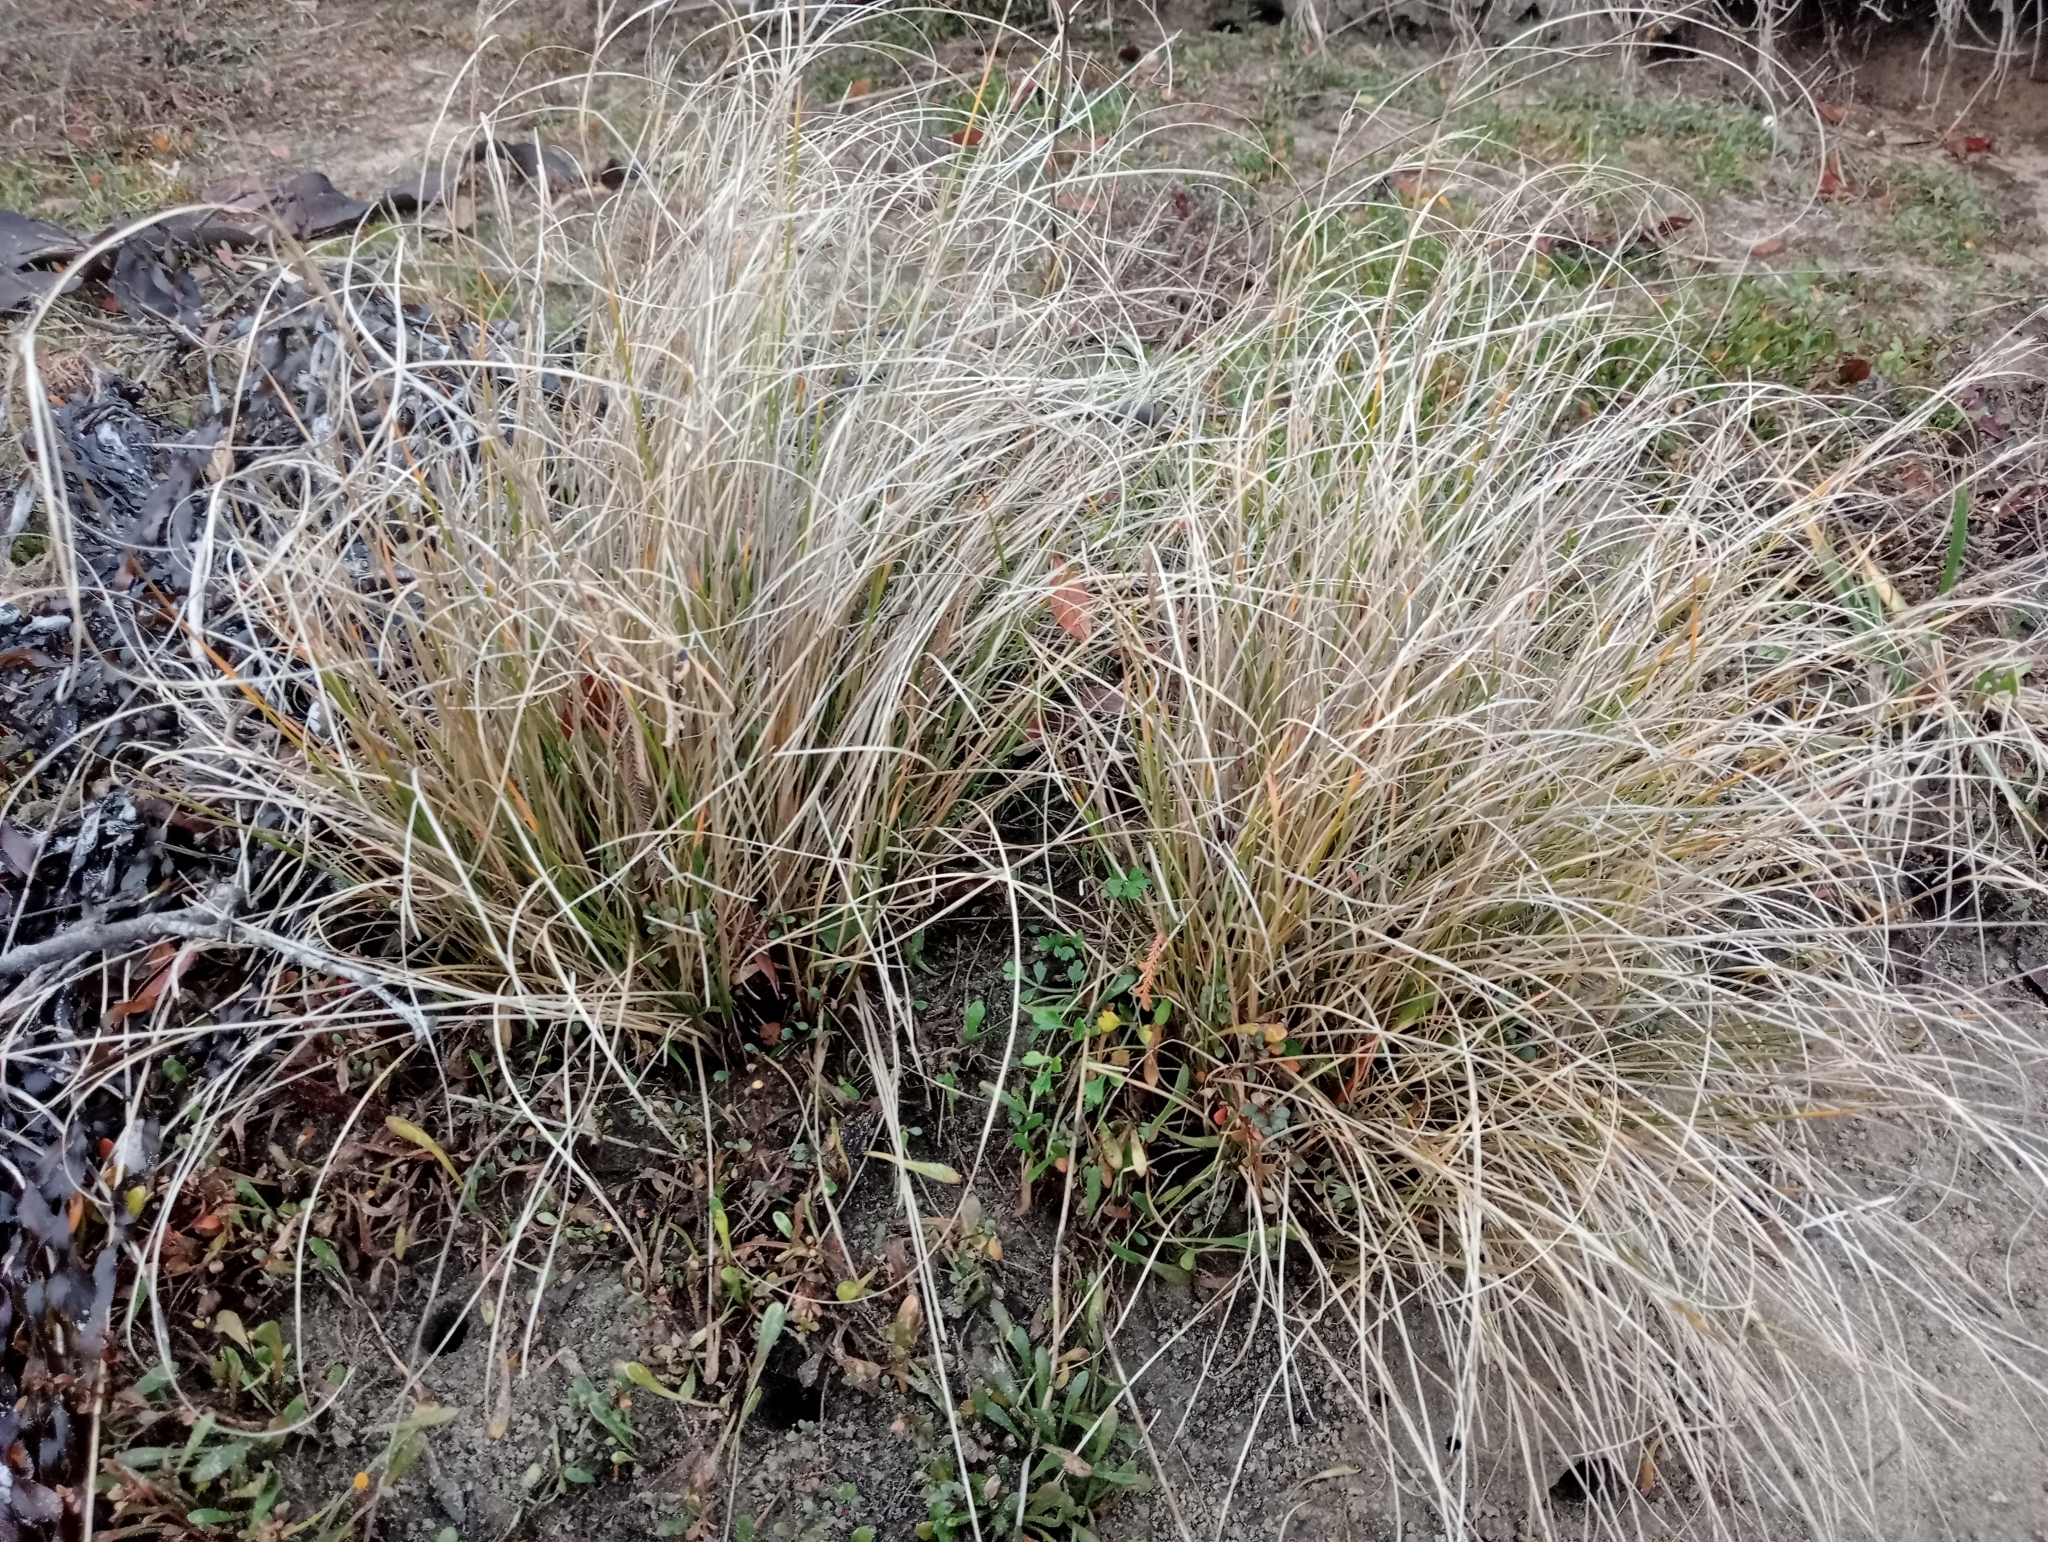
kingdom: Plantae
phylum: Tracheophyta
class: Liliopsida
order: Poales
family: Cyperaceae
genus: Carex
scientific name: Carex litorosa
